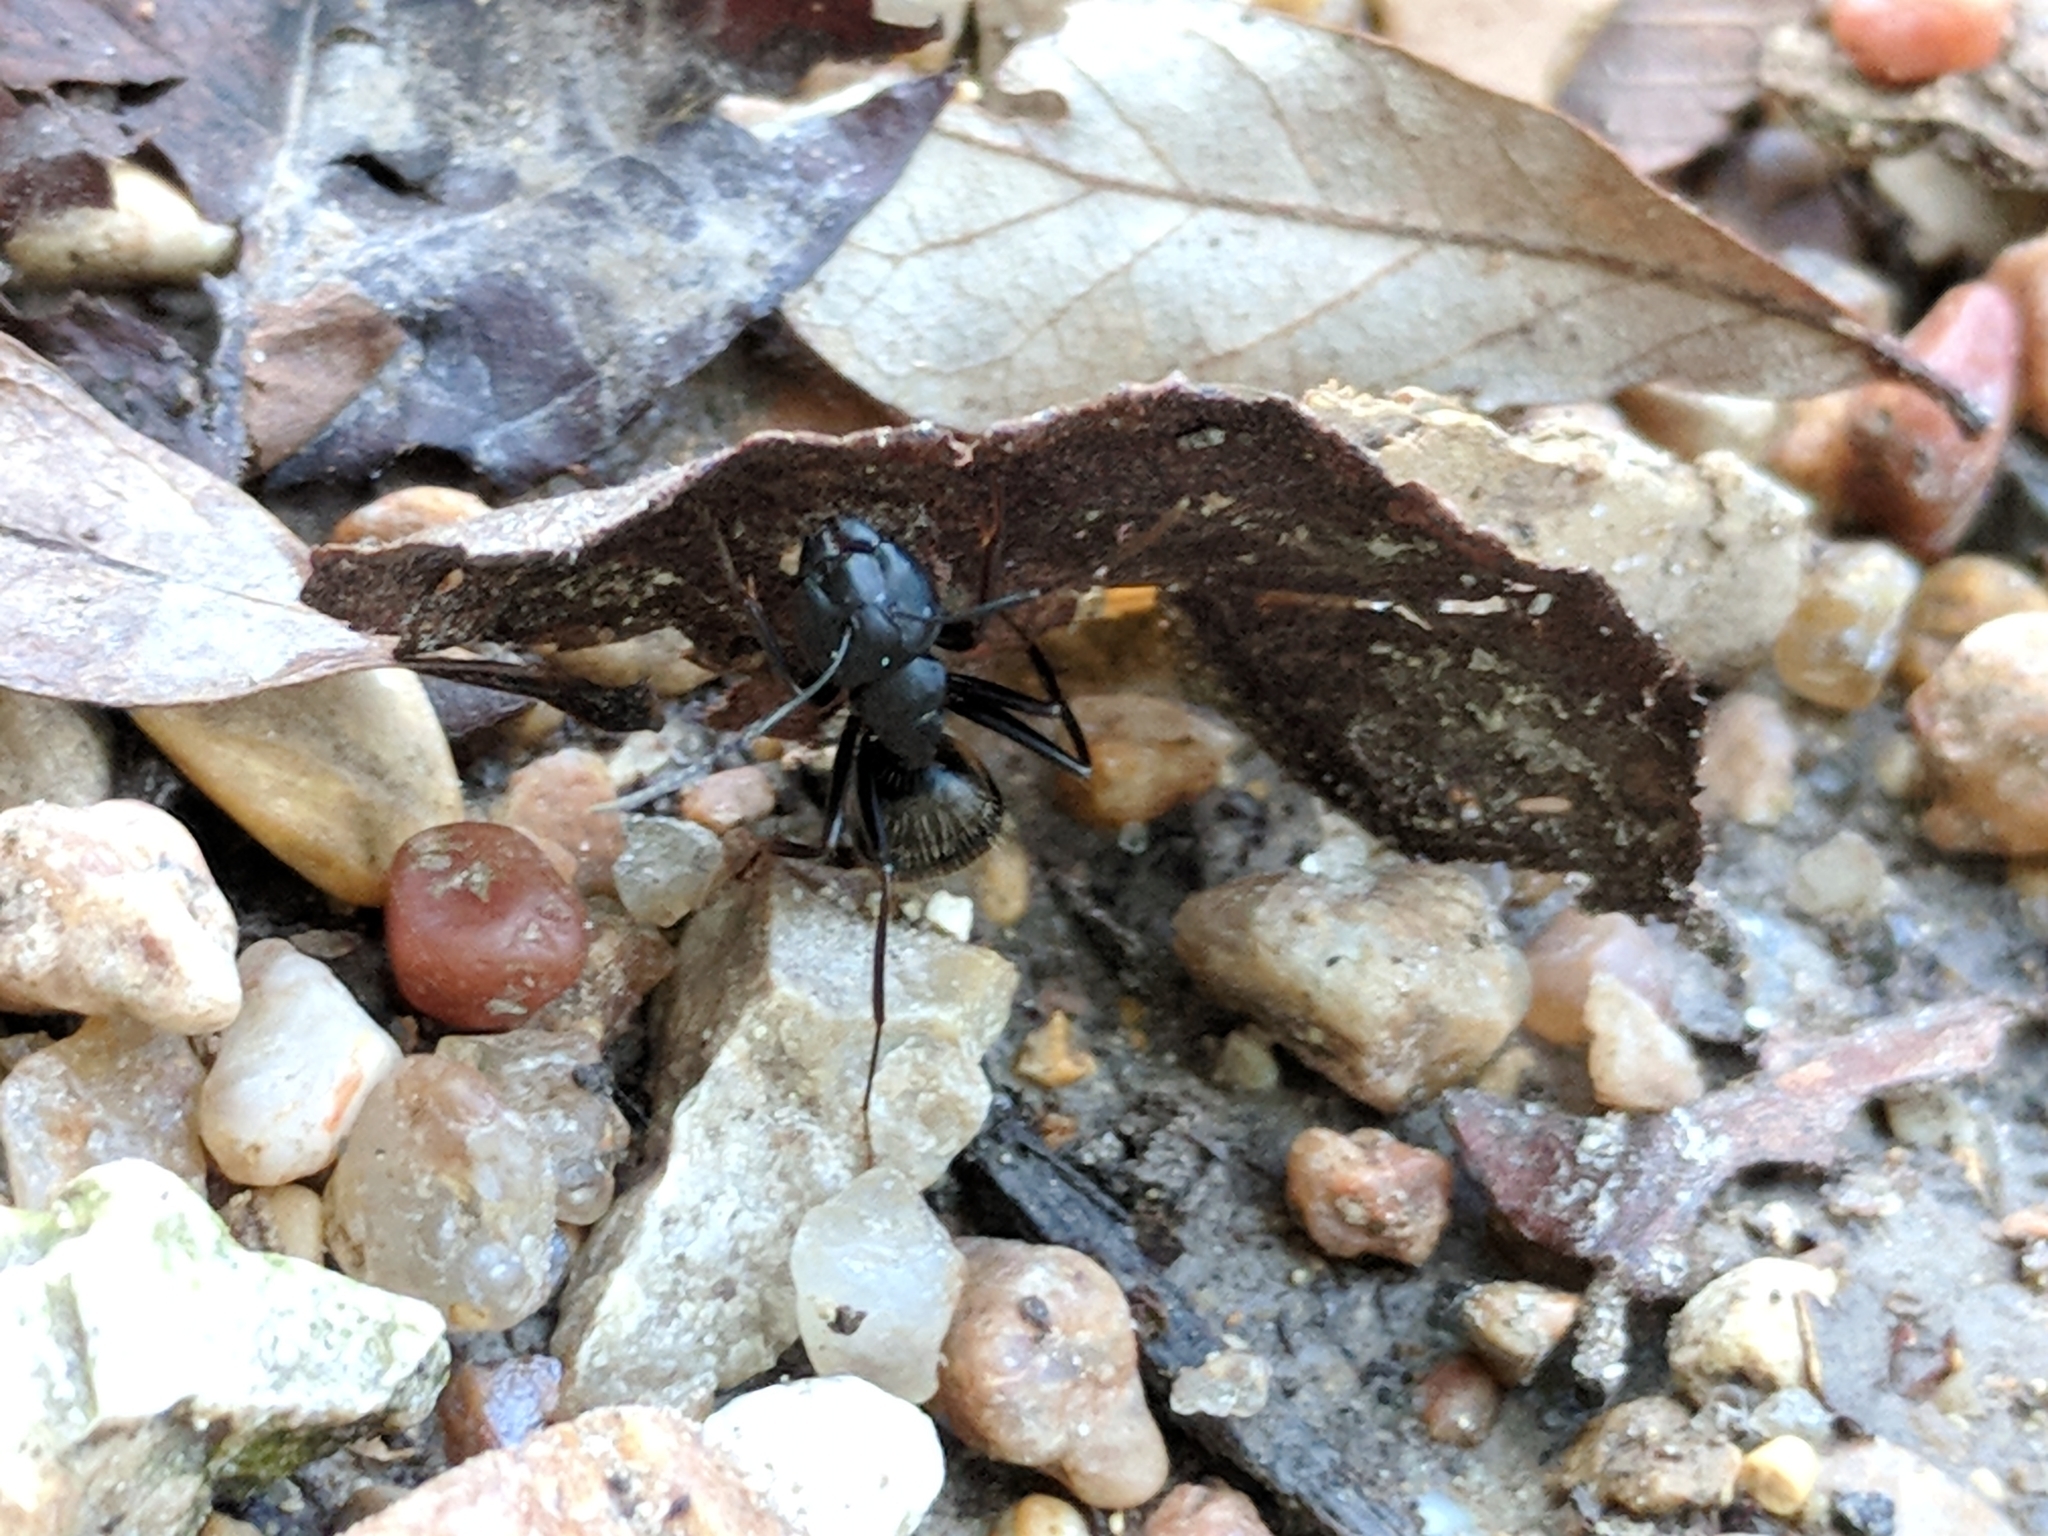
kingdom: Animalia
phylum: Arthropoda
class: Insecta
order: Hymenoptera
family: Formicidae
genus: Camponotus
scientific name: Camponotus pennsylvanicus
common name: Black carpenter ant
